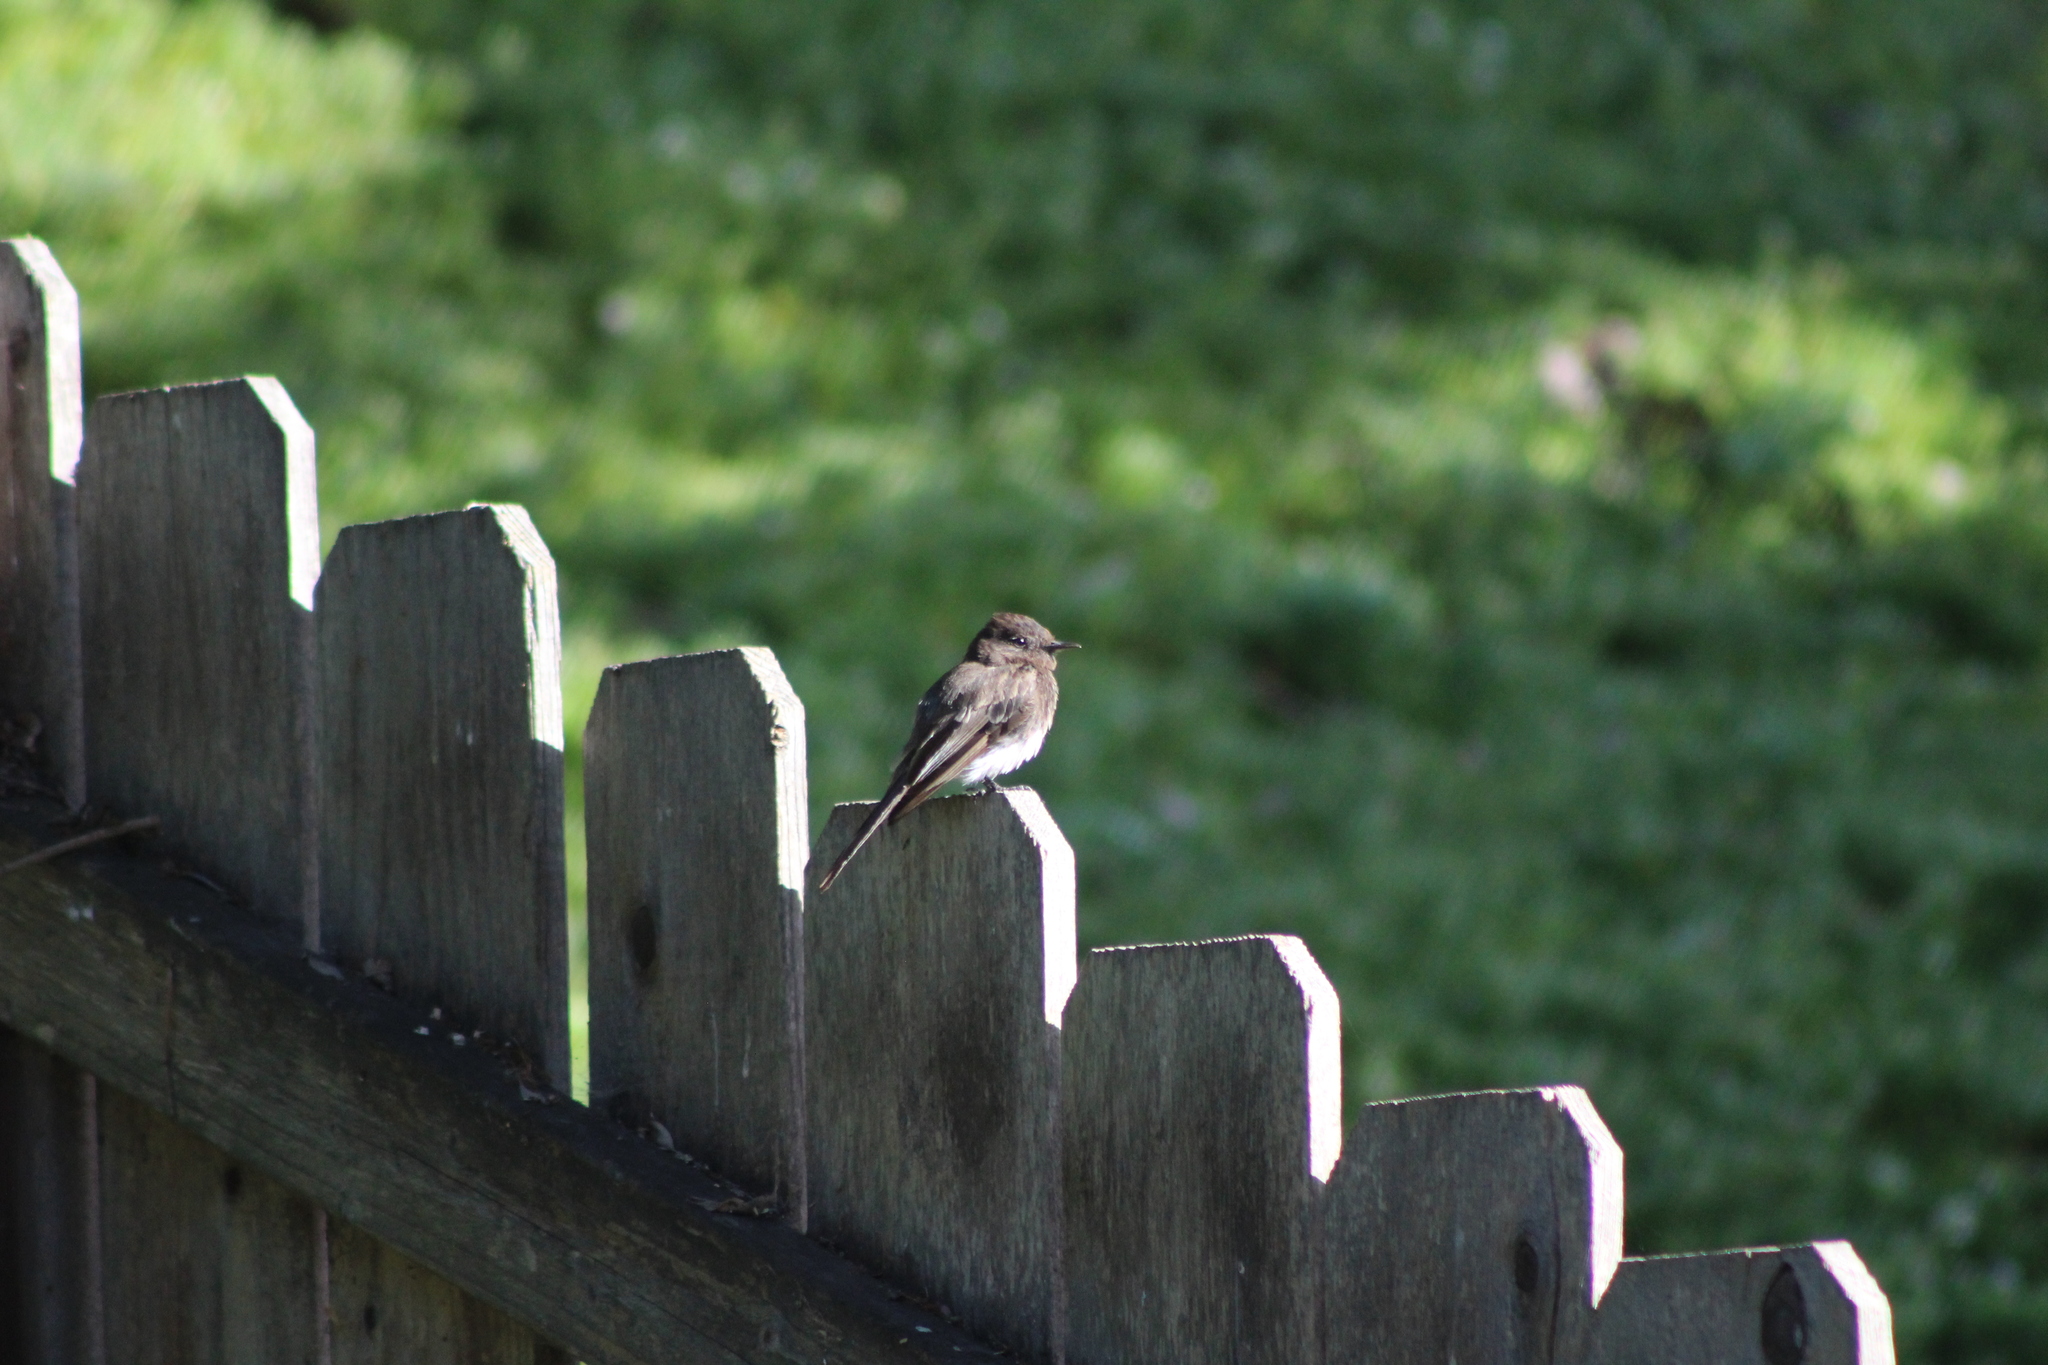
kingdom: Animalia
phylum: Chordata
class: Aves
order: Passeriformes
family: Tyrannidae
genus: Sayornis
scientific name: Sayornis nigricans
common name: Black phoebe
